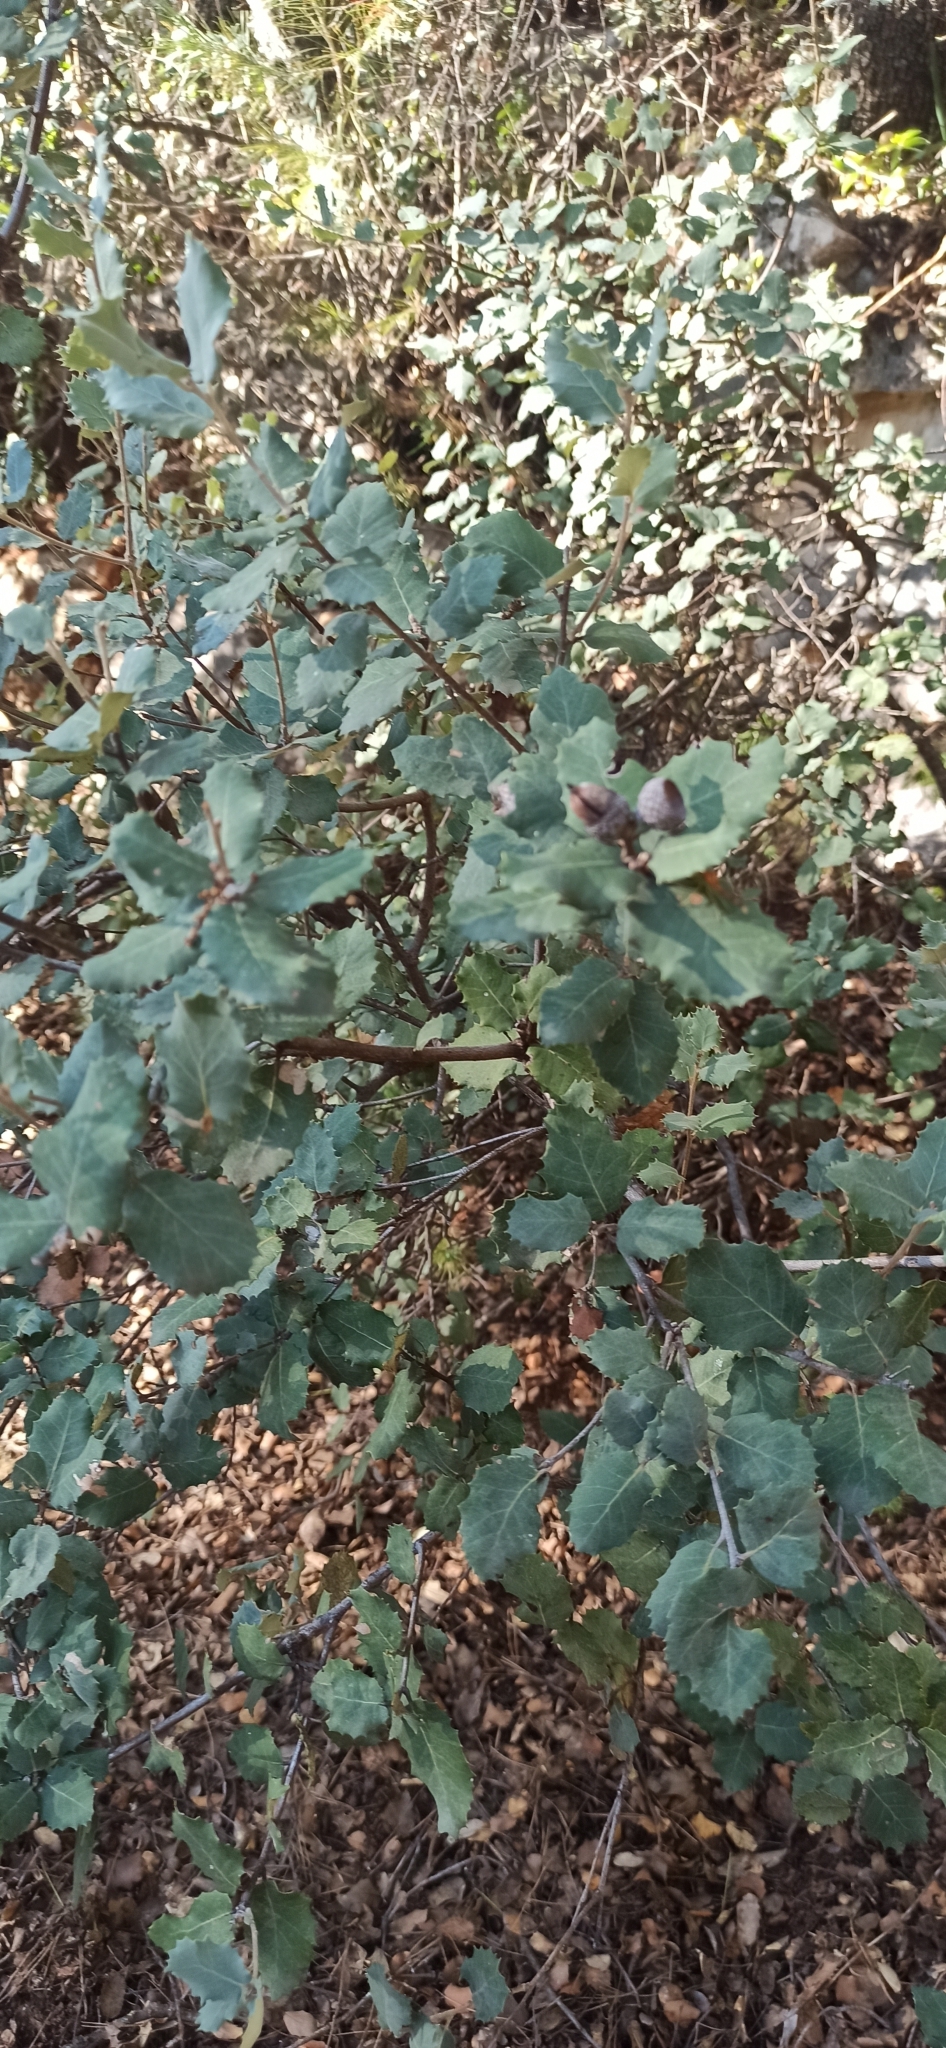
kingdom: Plantae
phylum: Tracheophyta
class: Magnoliopsida
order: Fagales
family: Fagaceae
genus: Quercus
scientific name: Quercus rotundifolia
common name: Holm oak
